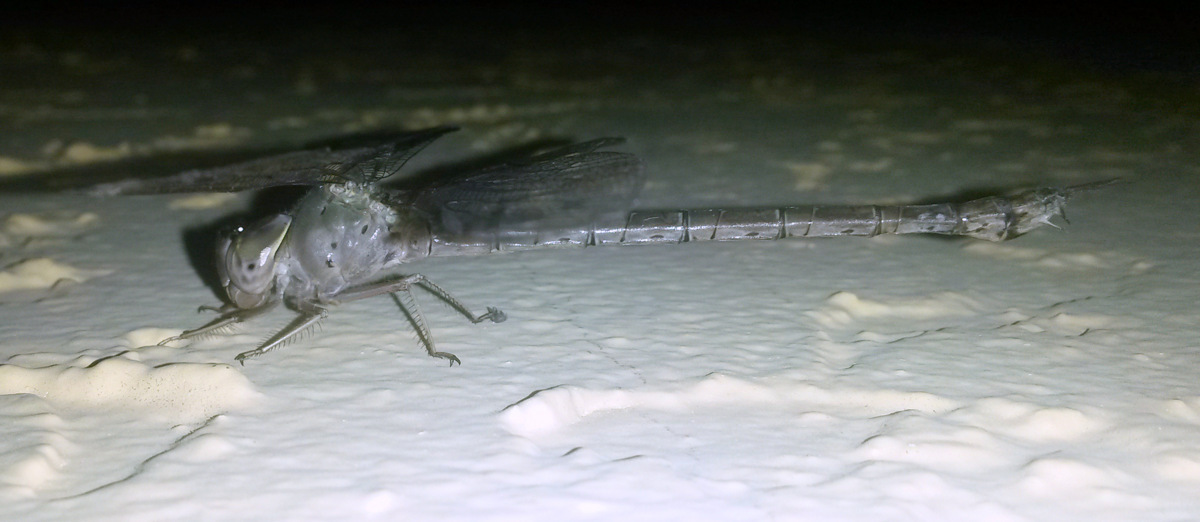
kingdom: Animalia
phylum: Arthropoda
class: Insecta
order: Odonata
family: Aeshnidae
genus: Gynacantha
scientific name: Gynacantha nervosa
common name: Twilight darner
